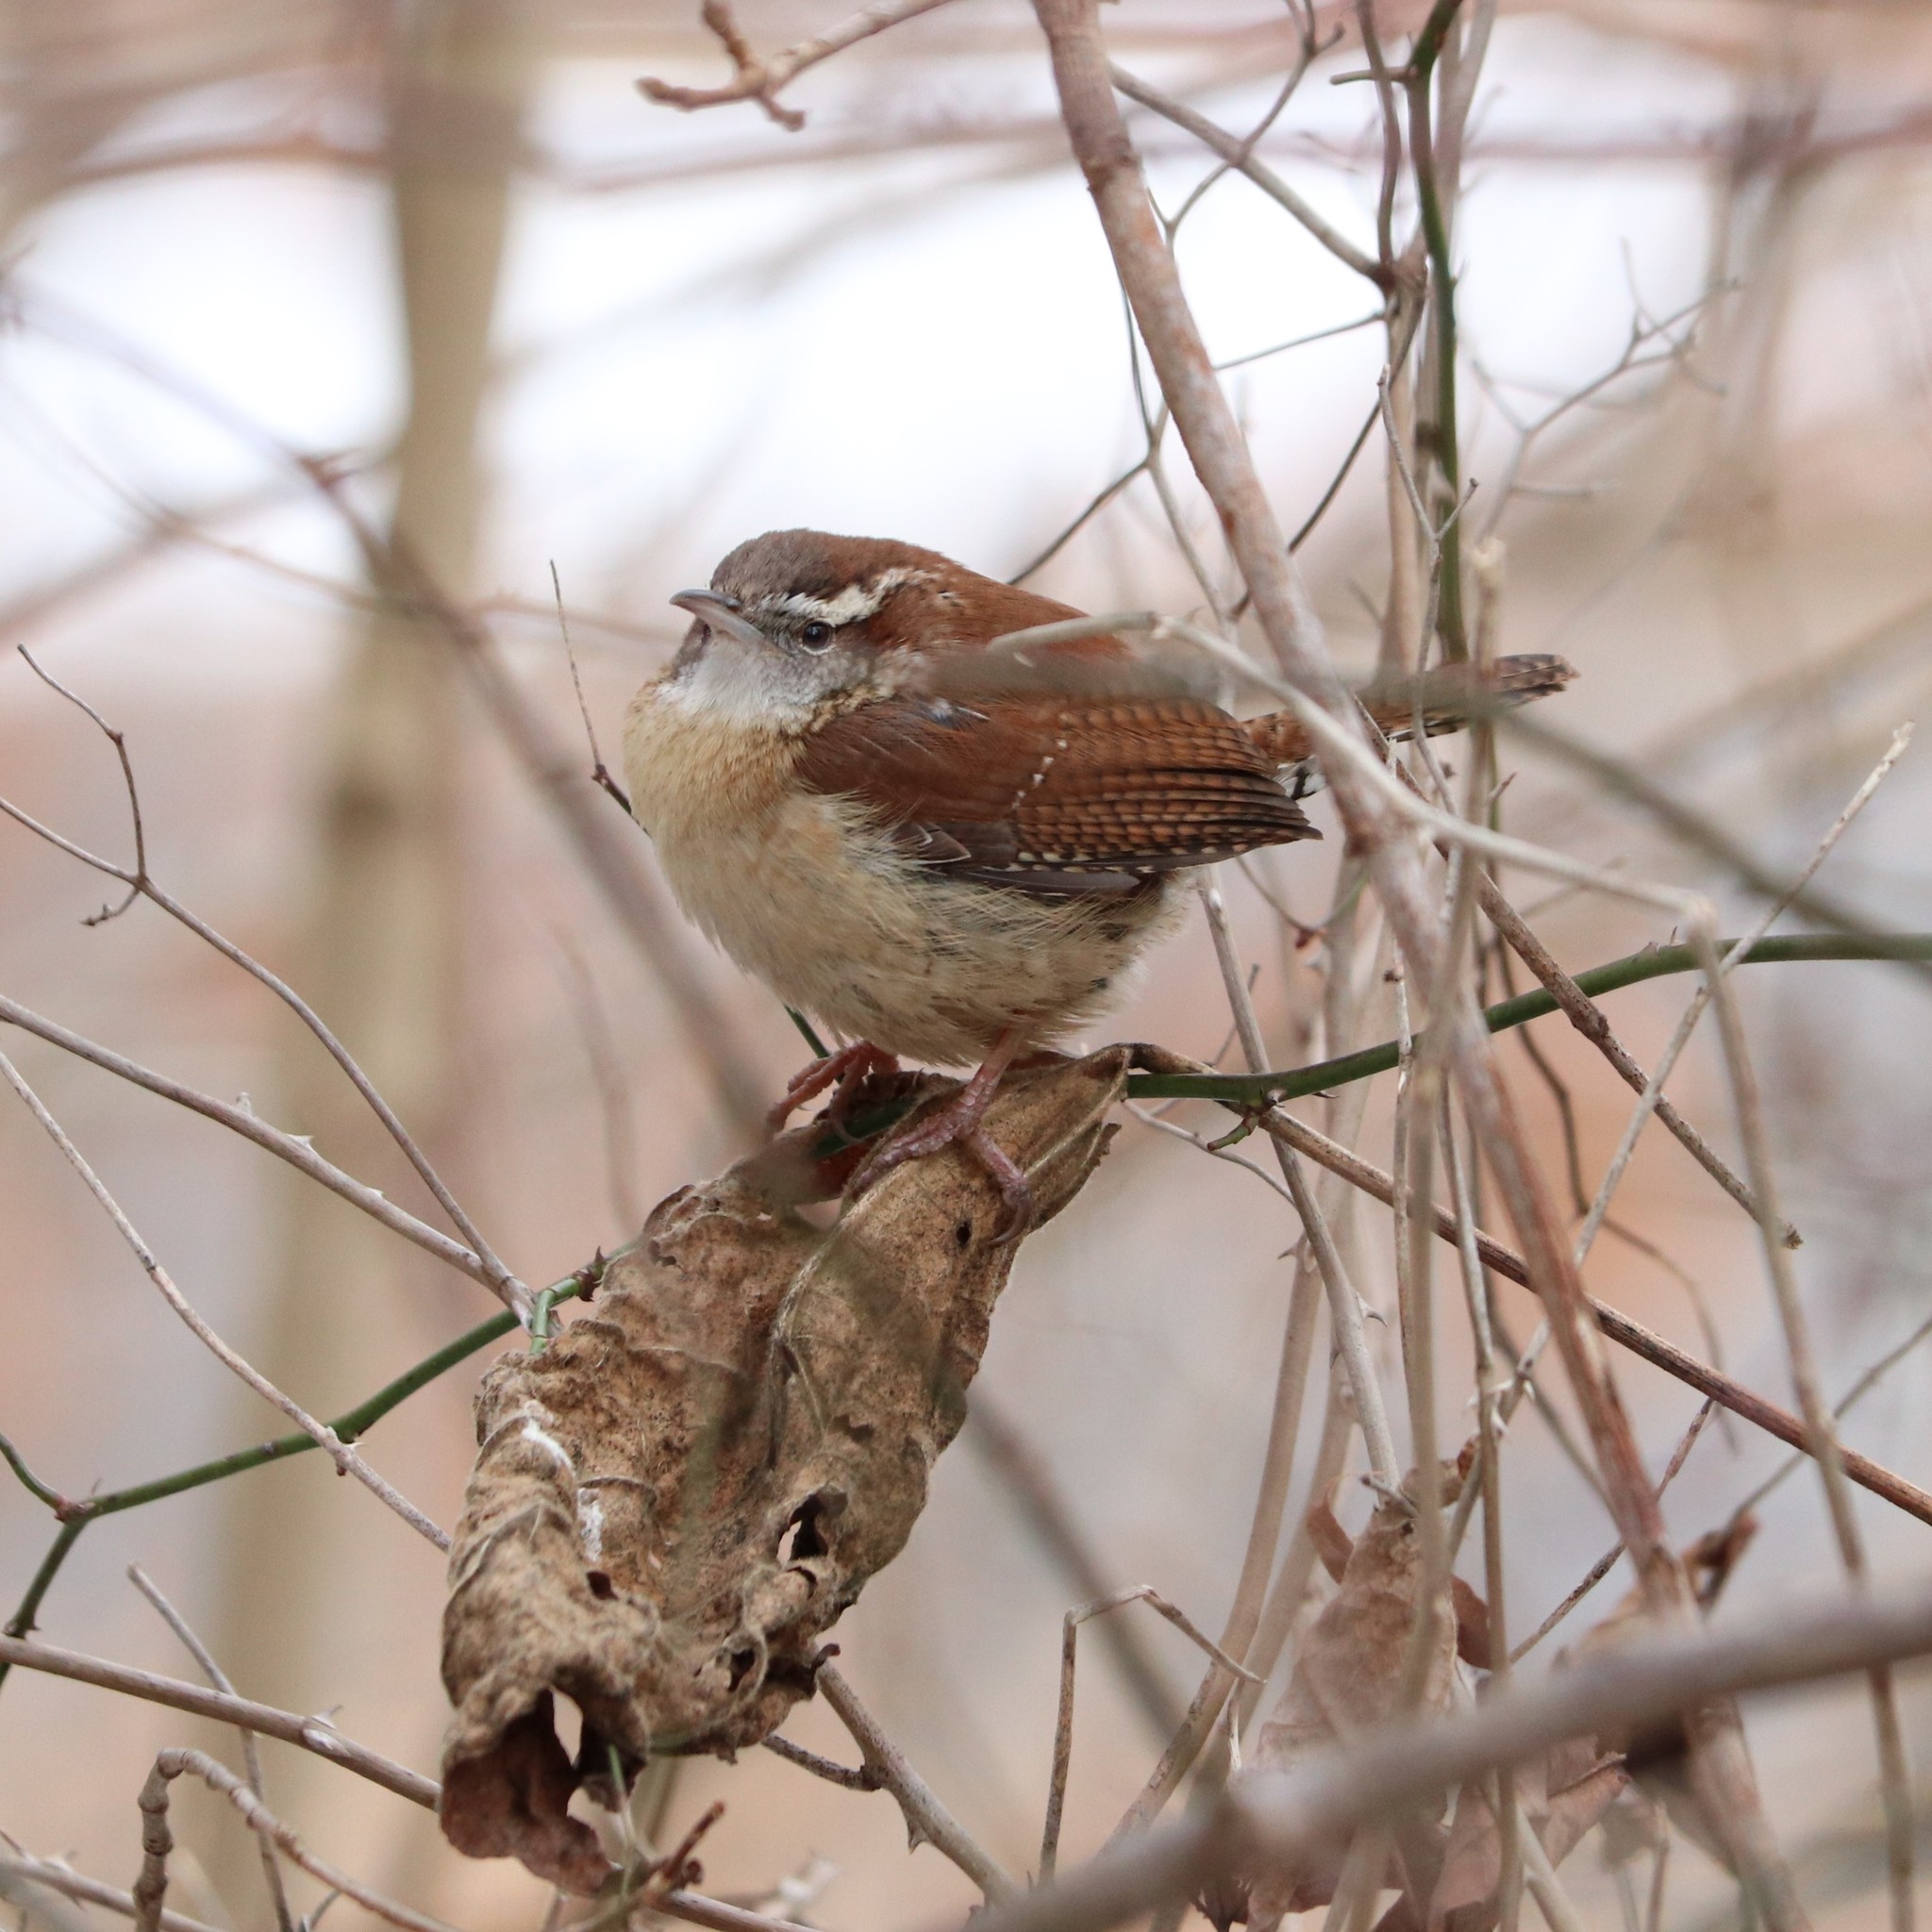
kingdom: Animalia
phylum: Chordata
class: Aves
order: Passeriformes
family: Troglodytidae
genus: Thryothorus
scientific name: Thryothorus ludovicianus
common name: Carolina wren
